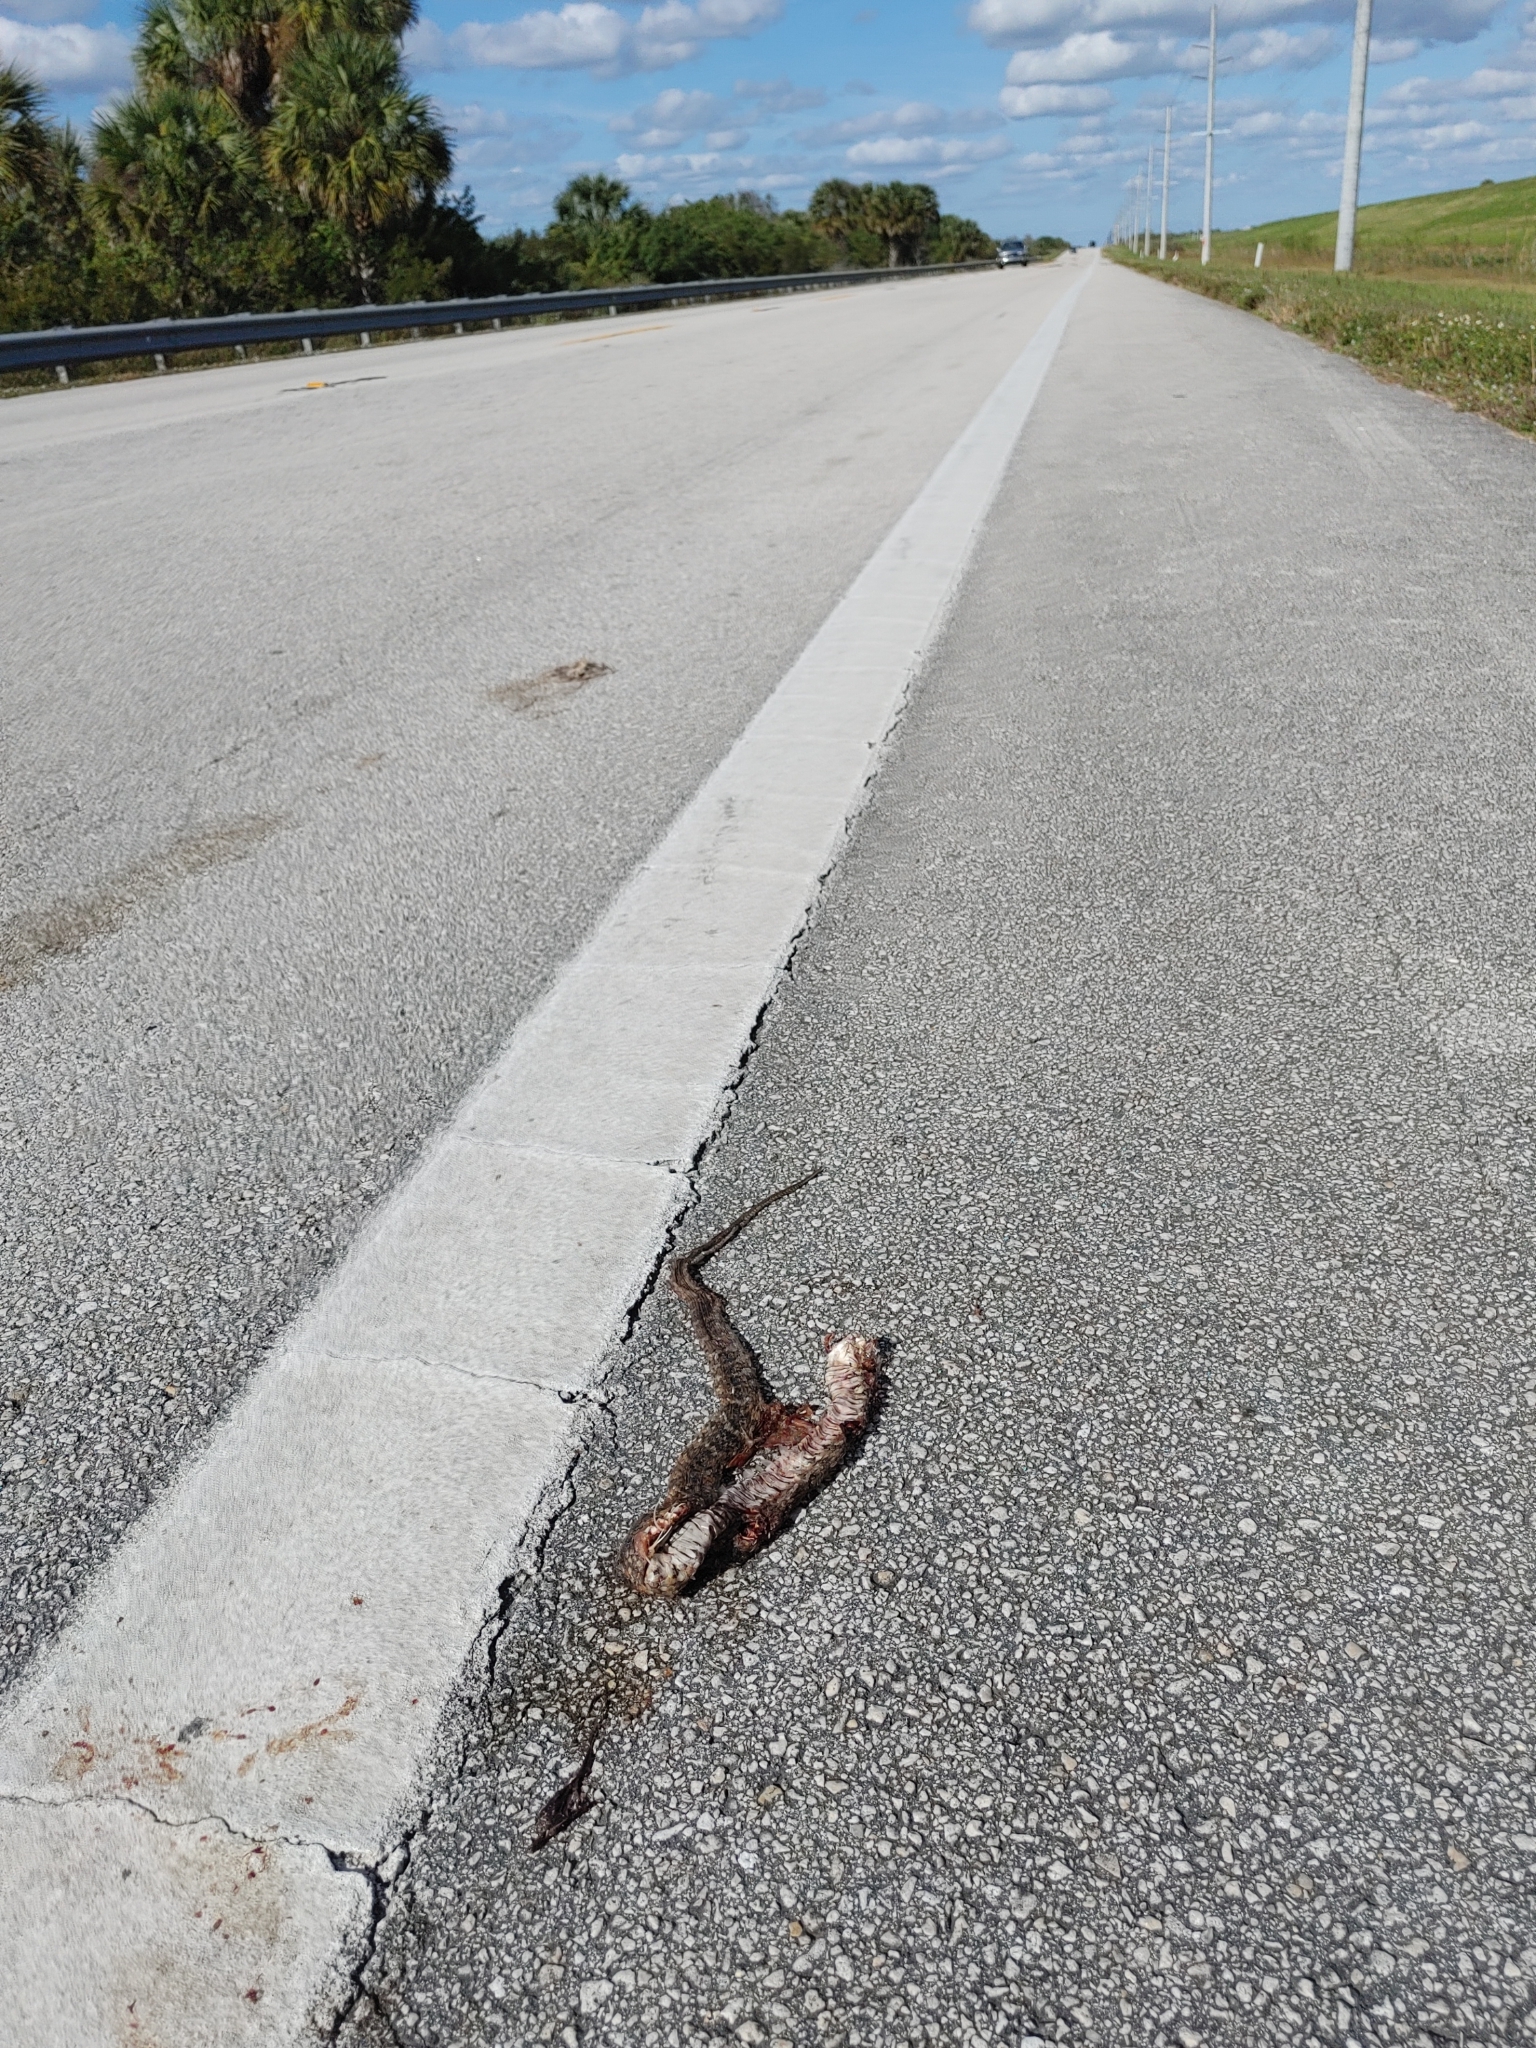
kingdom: Animalia
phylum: Chordata
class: Squamata
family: Colubridae
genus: Nerodia
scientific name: Nerodia fasciata
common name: Southern water snake
